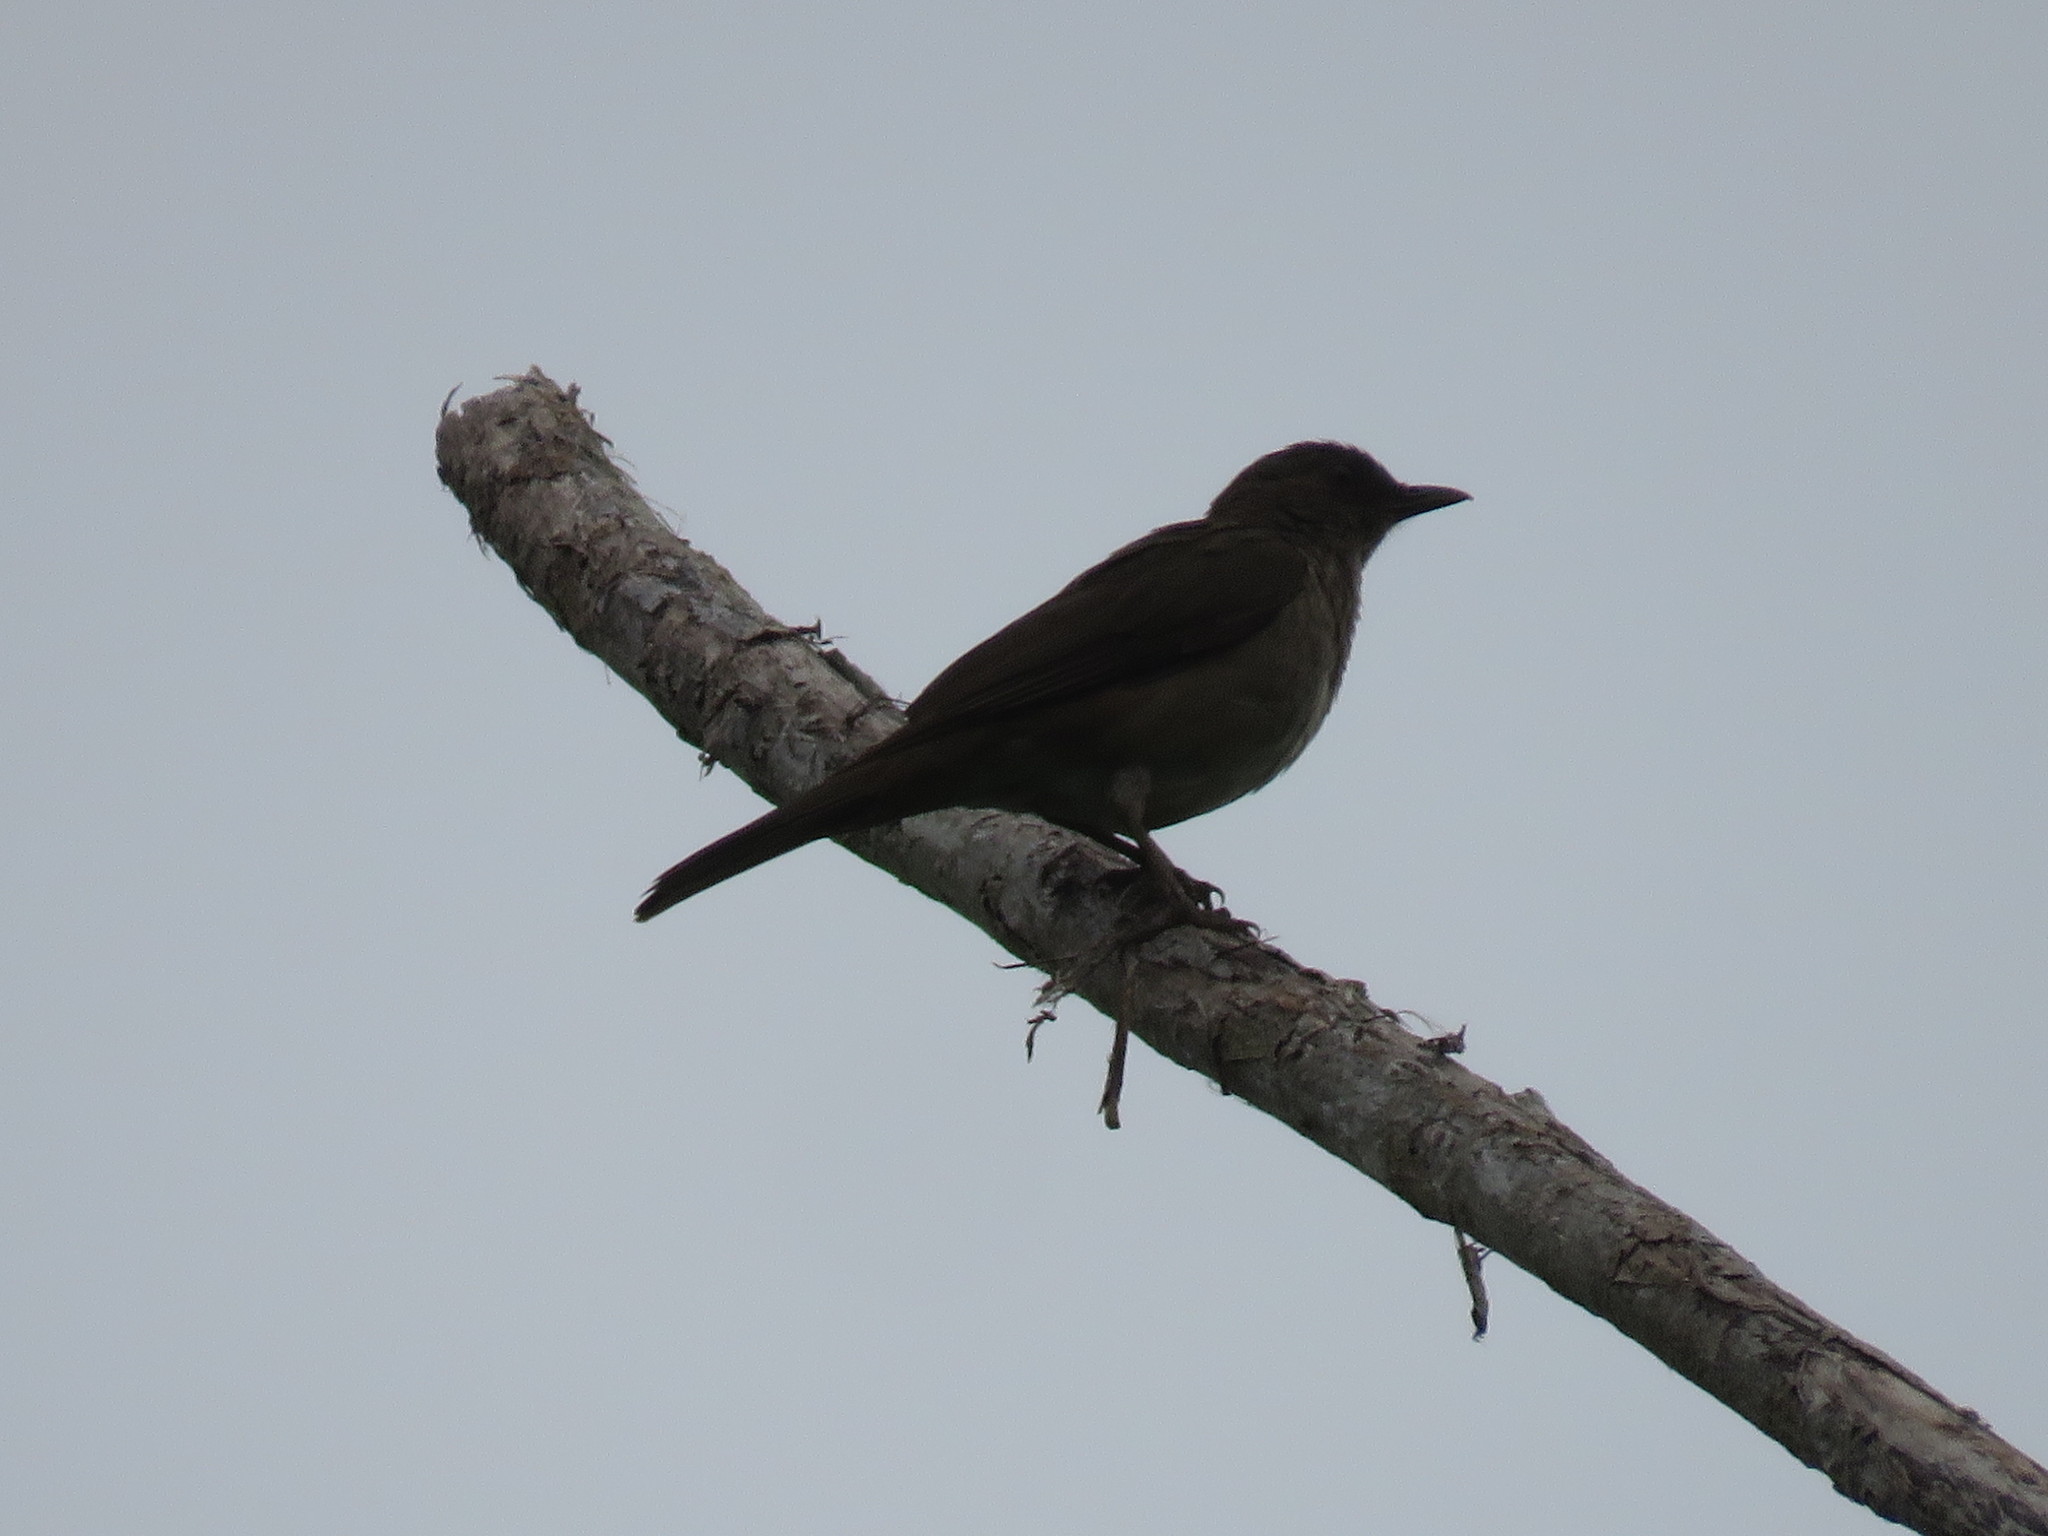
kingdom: Animalia
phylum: Chordata
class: Aves
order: Passeriformes
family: Turdidae
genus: Turdus
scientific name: Turdus ignobilis
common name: Black-billed thrush
